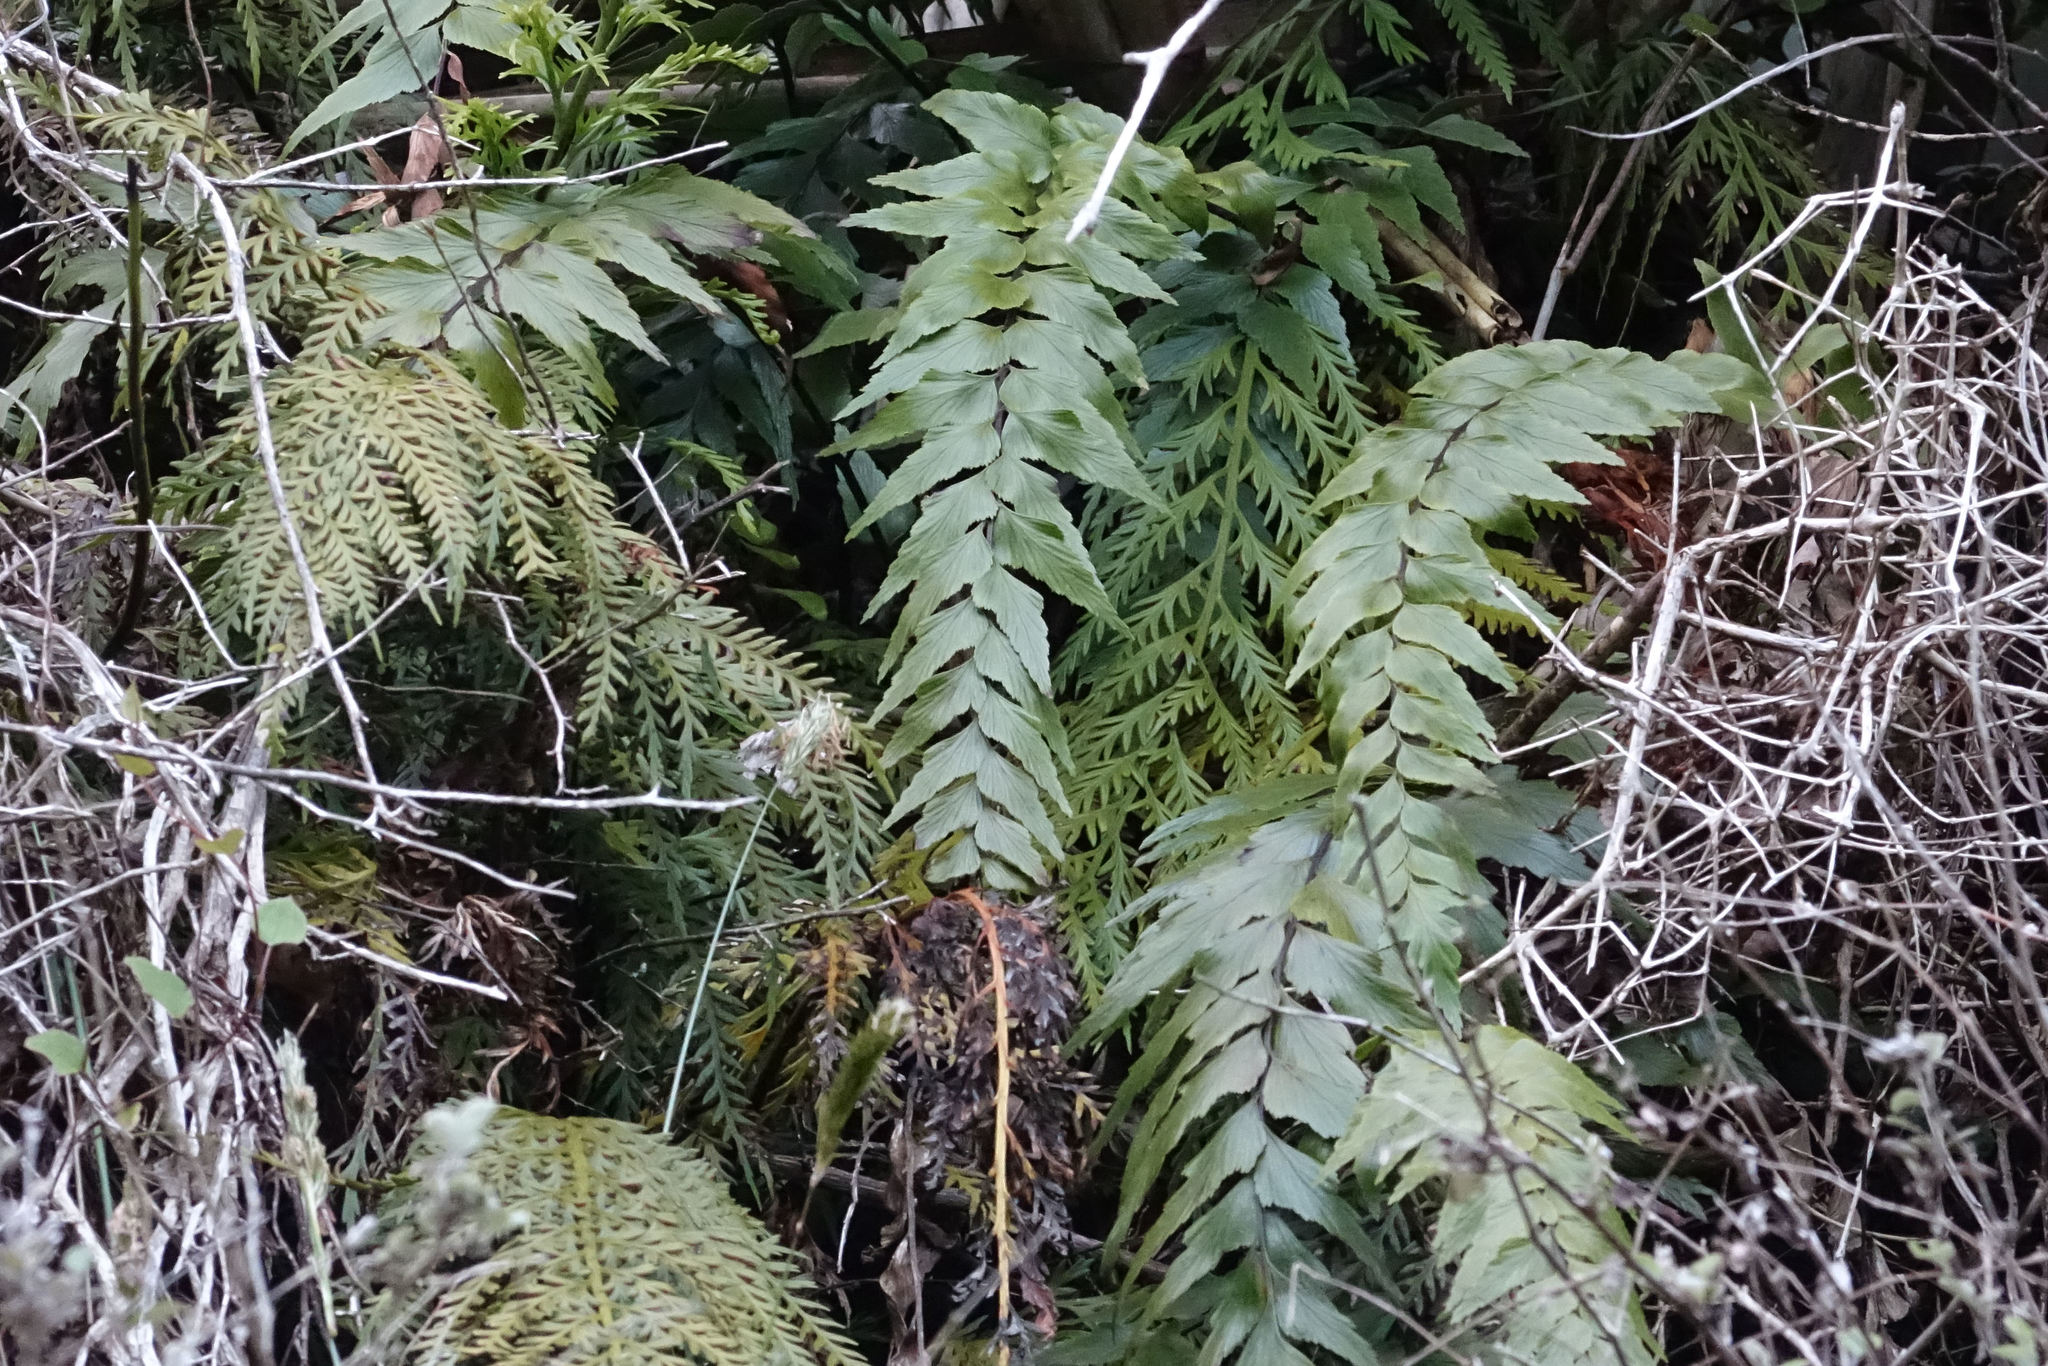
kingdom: Plantae
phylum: Tracheophyta
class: Polypodiopsida
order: Polypodiales
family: Aspleniaceae
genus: Asplenium
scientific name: Asplenium polyodon
